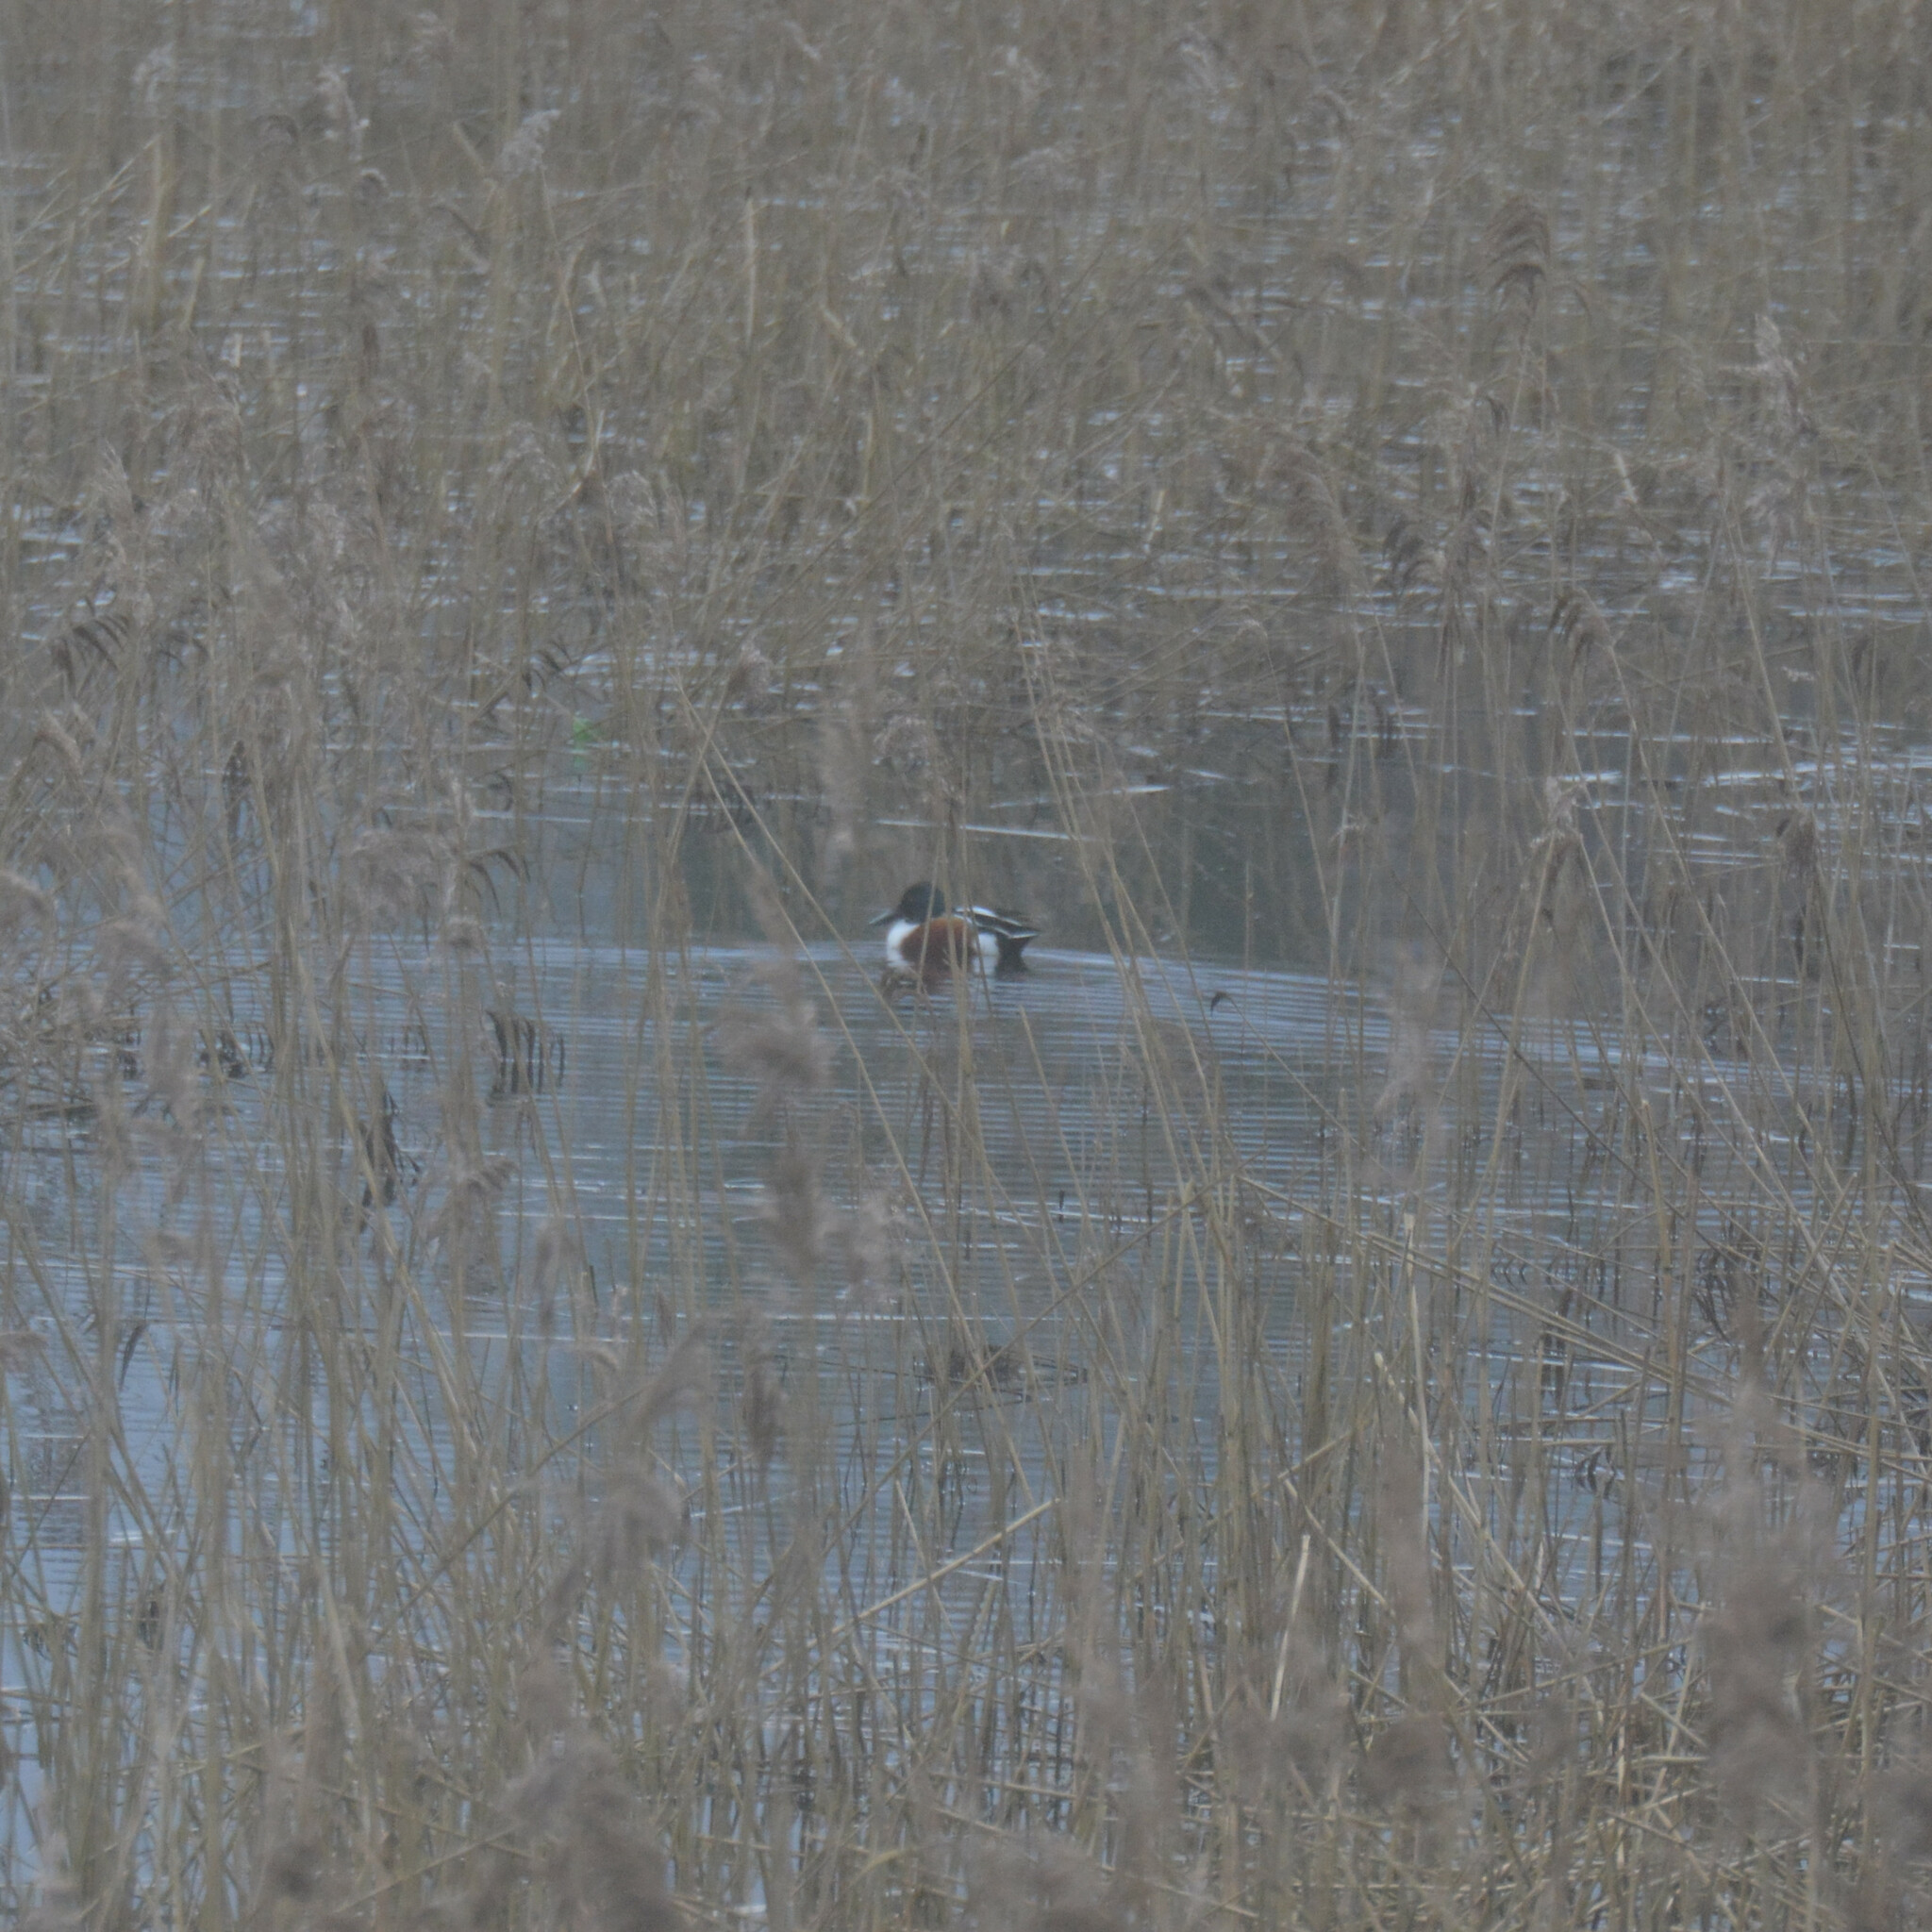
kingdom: Animalia
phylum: Chordata
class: Aves
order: Anseriformes
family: Anatidae
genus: Spatula
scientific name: Spatula clypeata
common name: Northern shoveler
